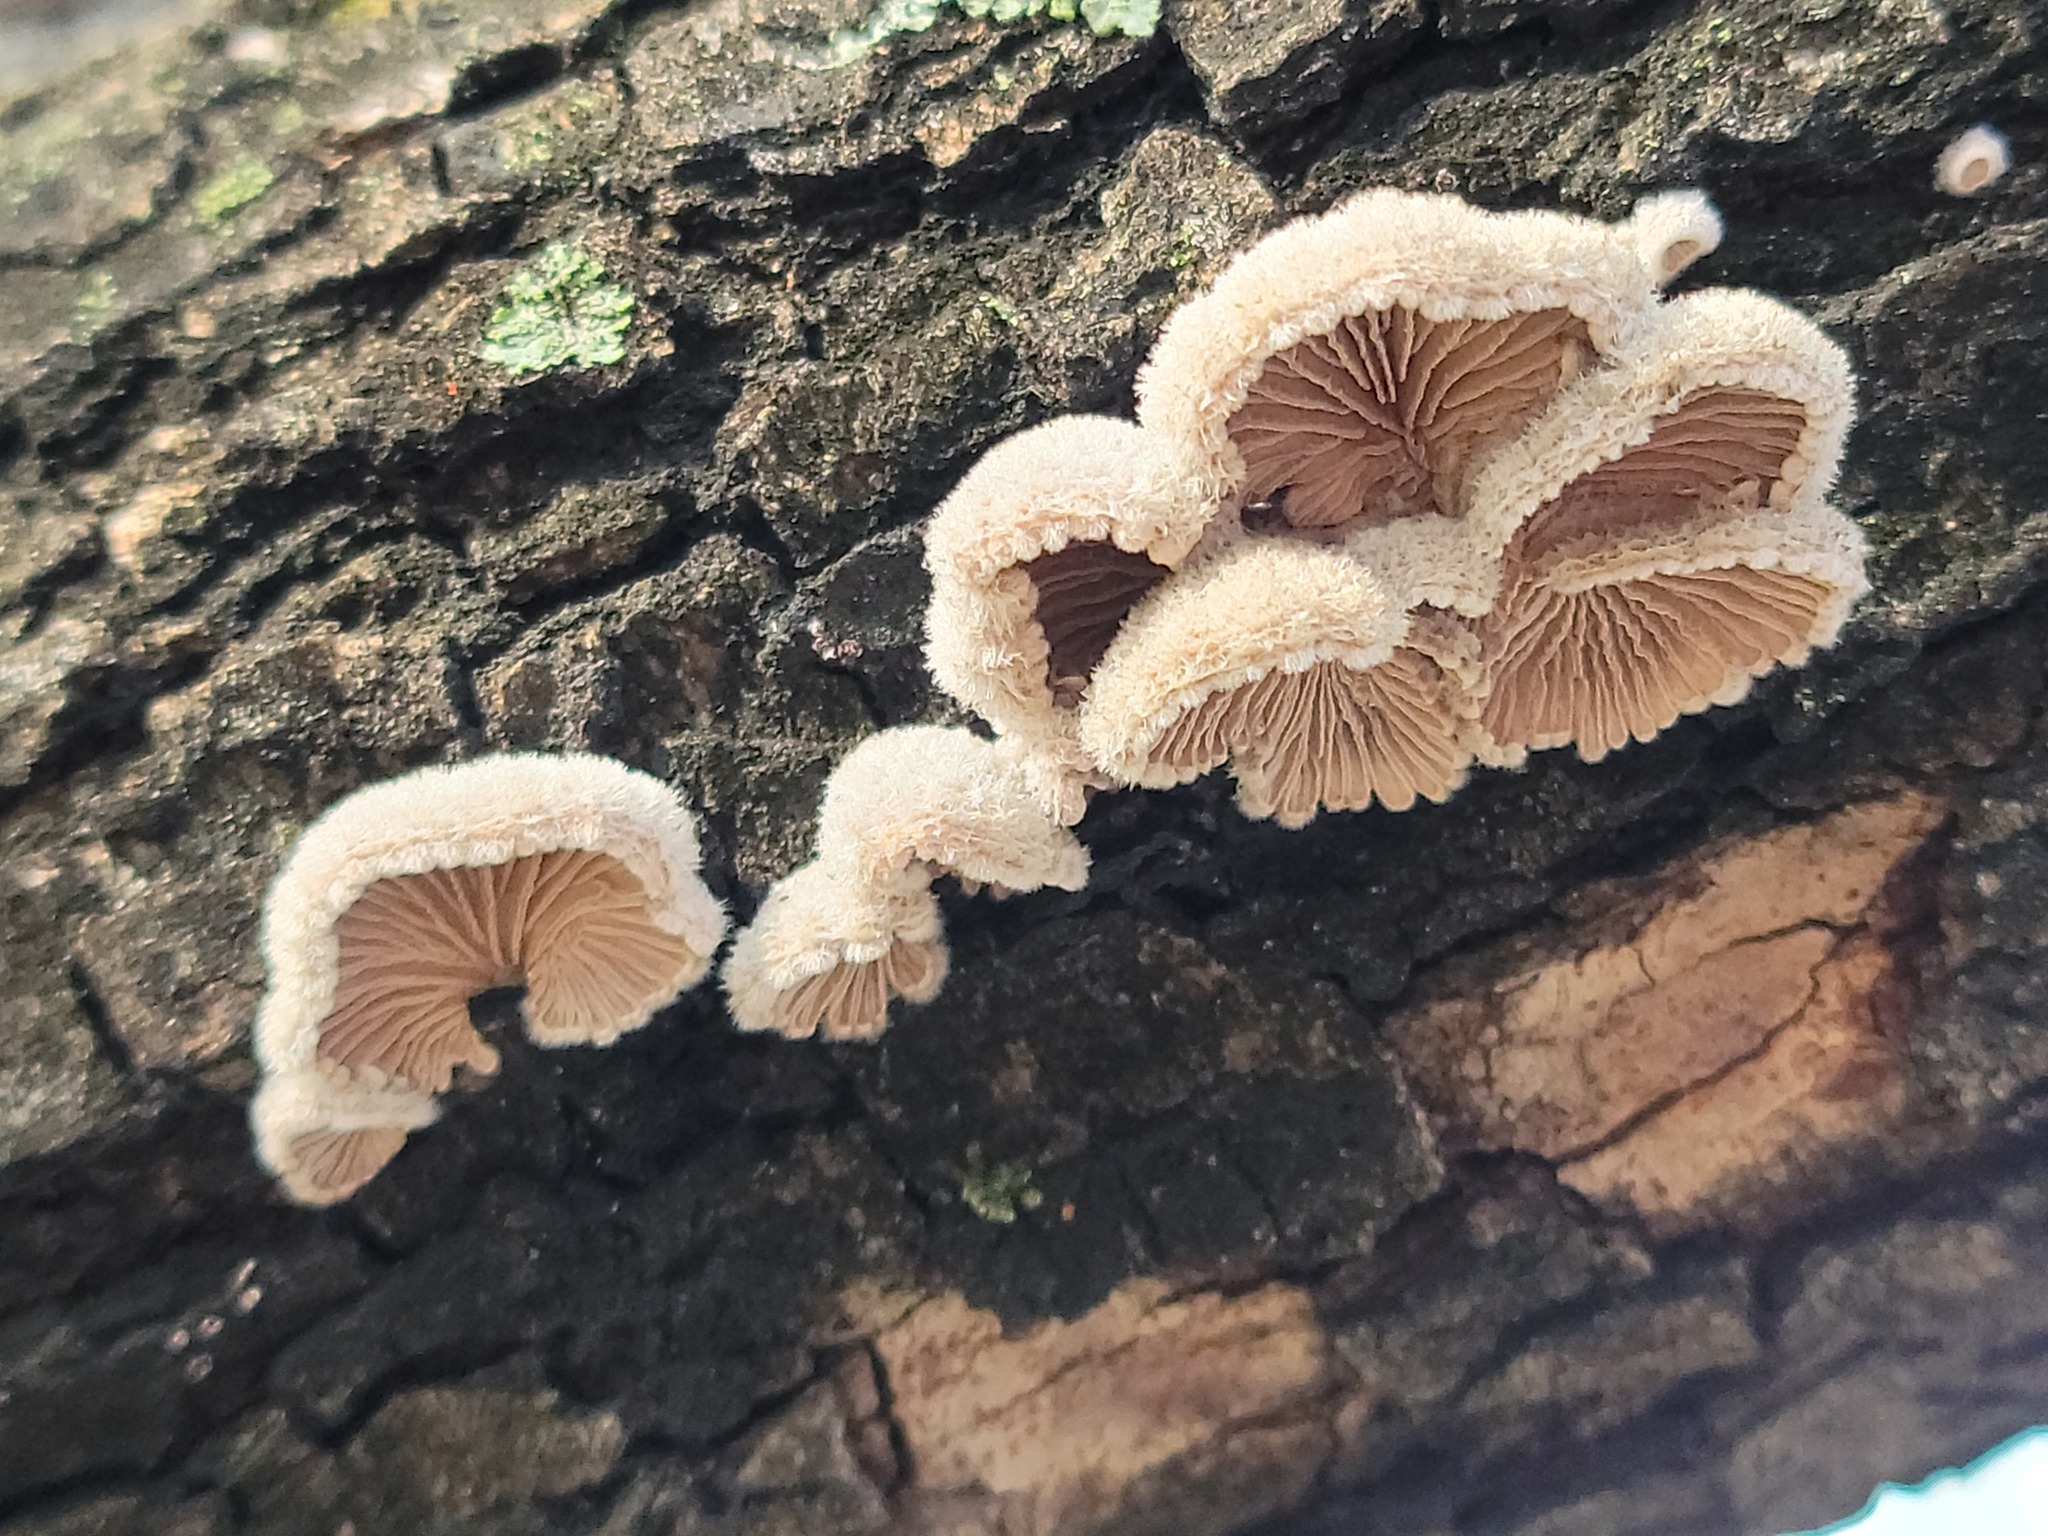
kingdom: Fungi
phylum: Basidiomycota
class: Agaricomycetes
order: Agaricales
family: Schizophyllaceae
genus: Schizophyllum
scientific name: Schizophyllum commune
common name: Common porecrust
